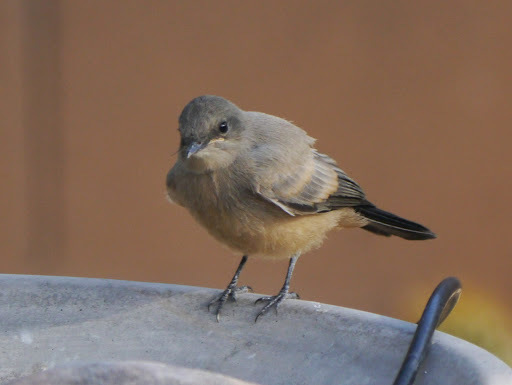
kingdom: Animalia
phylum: Chordata
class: Aves
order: Passeriformes
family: Tyrannidae
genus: Sayornis
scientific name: Sayornis saya
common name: Say's phoebe
